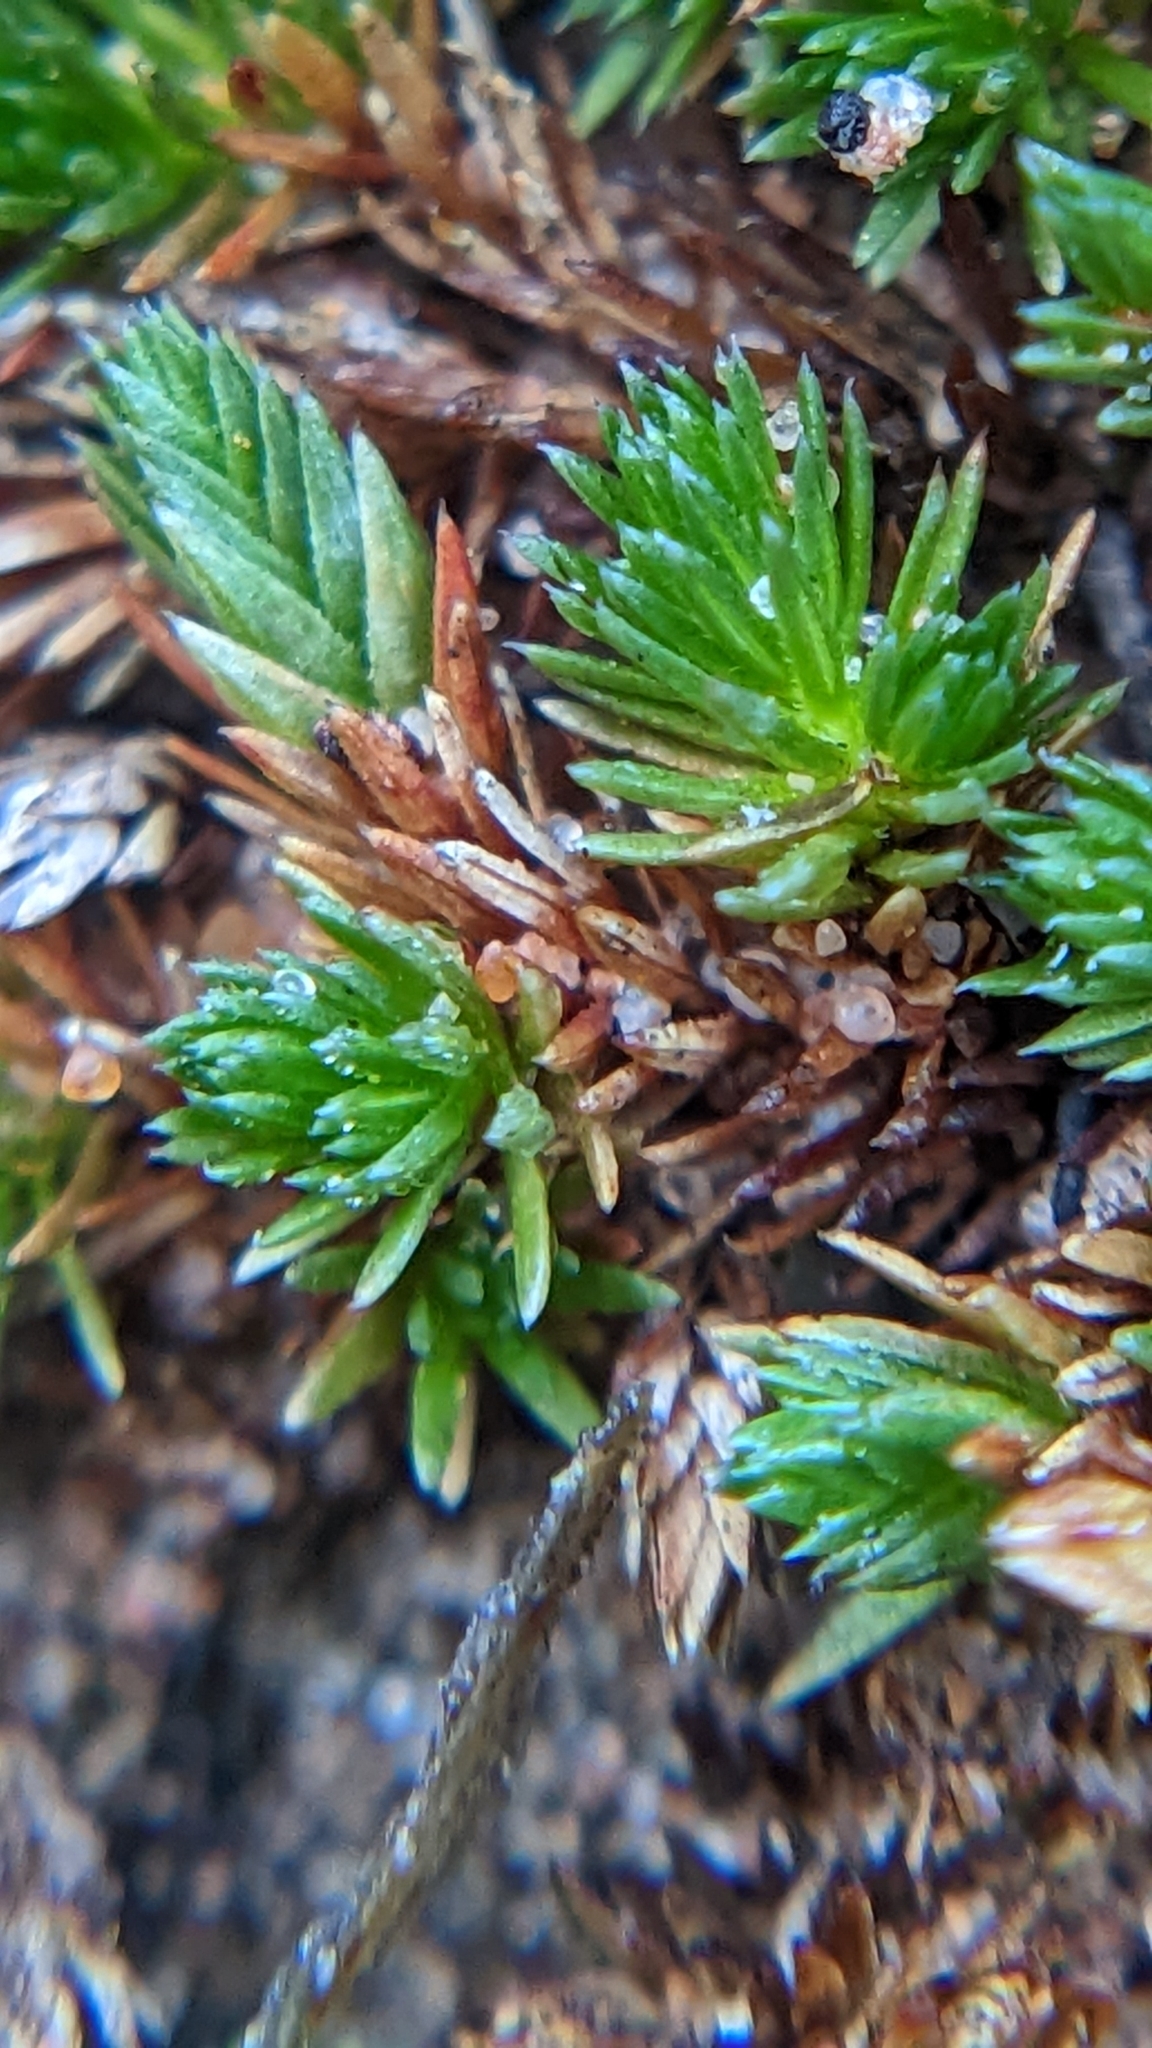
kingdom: Plantae
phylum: Tracheophyta
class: Lycopodiopsida
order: Selaginellales
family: Selaginellaceae
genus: Selaginella
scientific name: Selaginella utahensis
